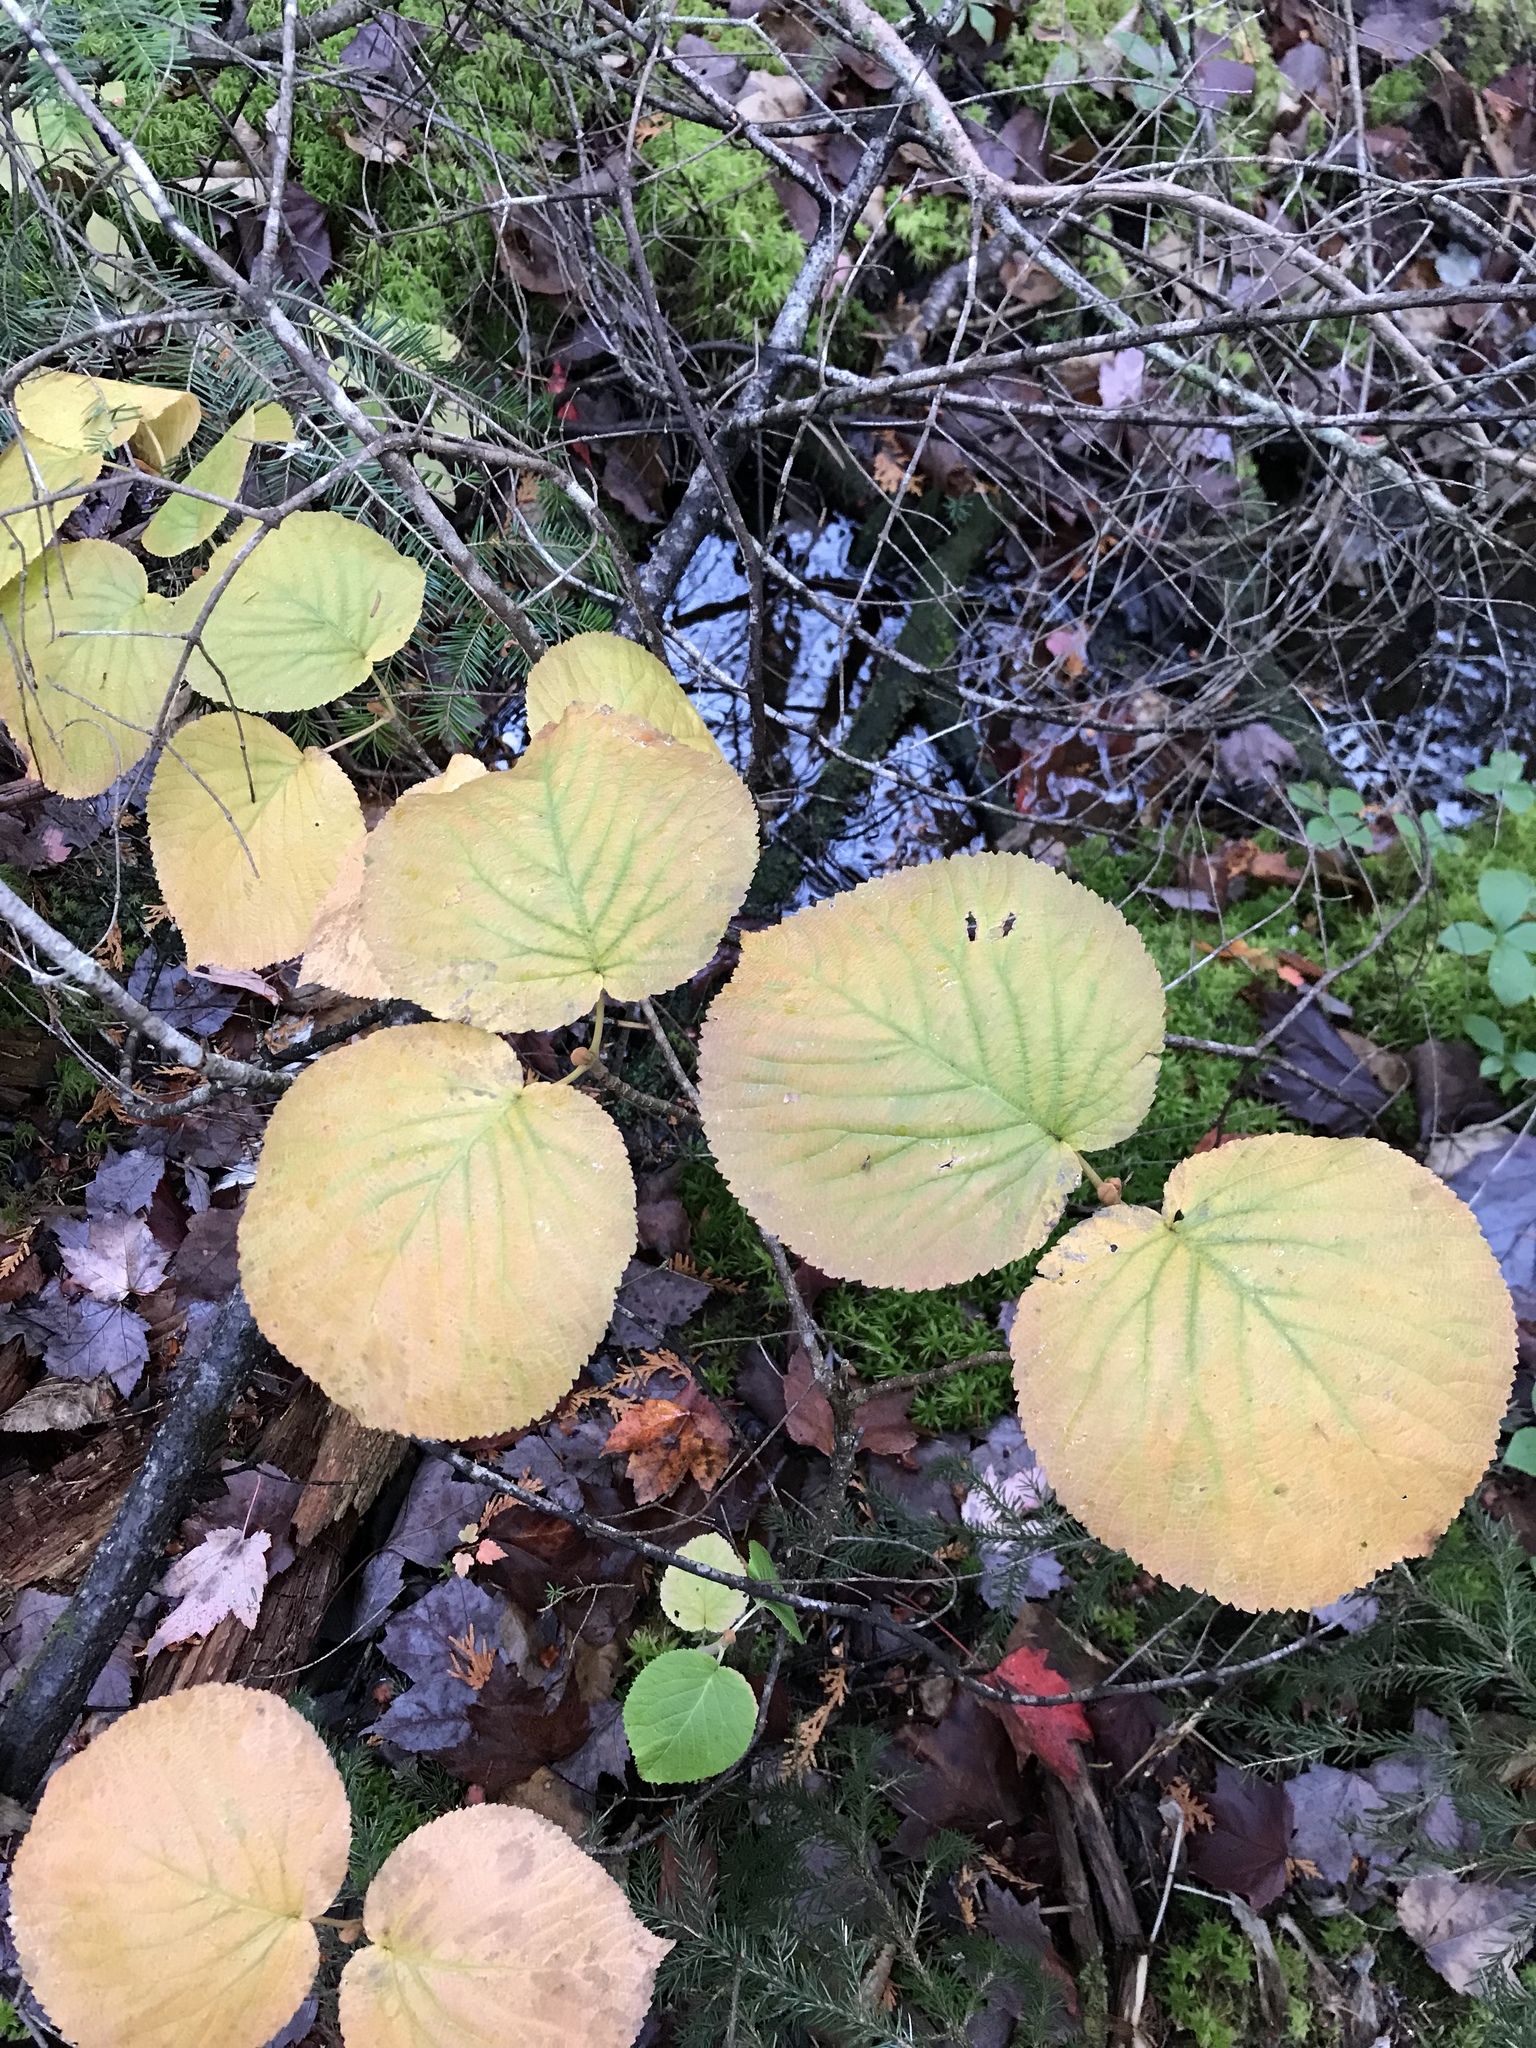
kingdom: Plantae
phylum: Tracheophyta
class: Magnoliopsida
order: Dipsacales
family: Viburnaceae
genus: Viburnum
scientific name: Viburnum lantanoides
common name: Hobblebush
